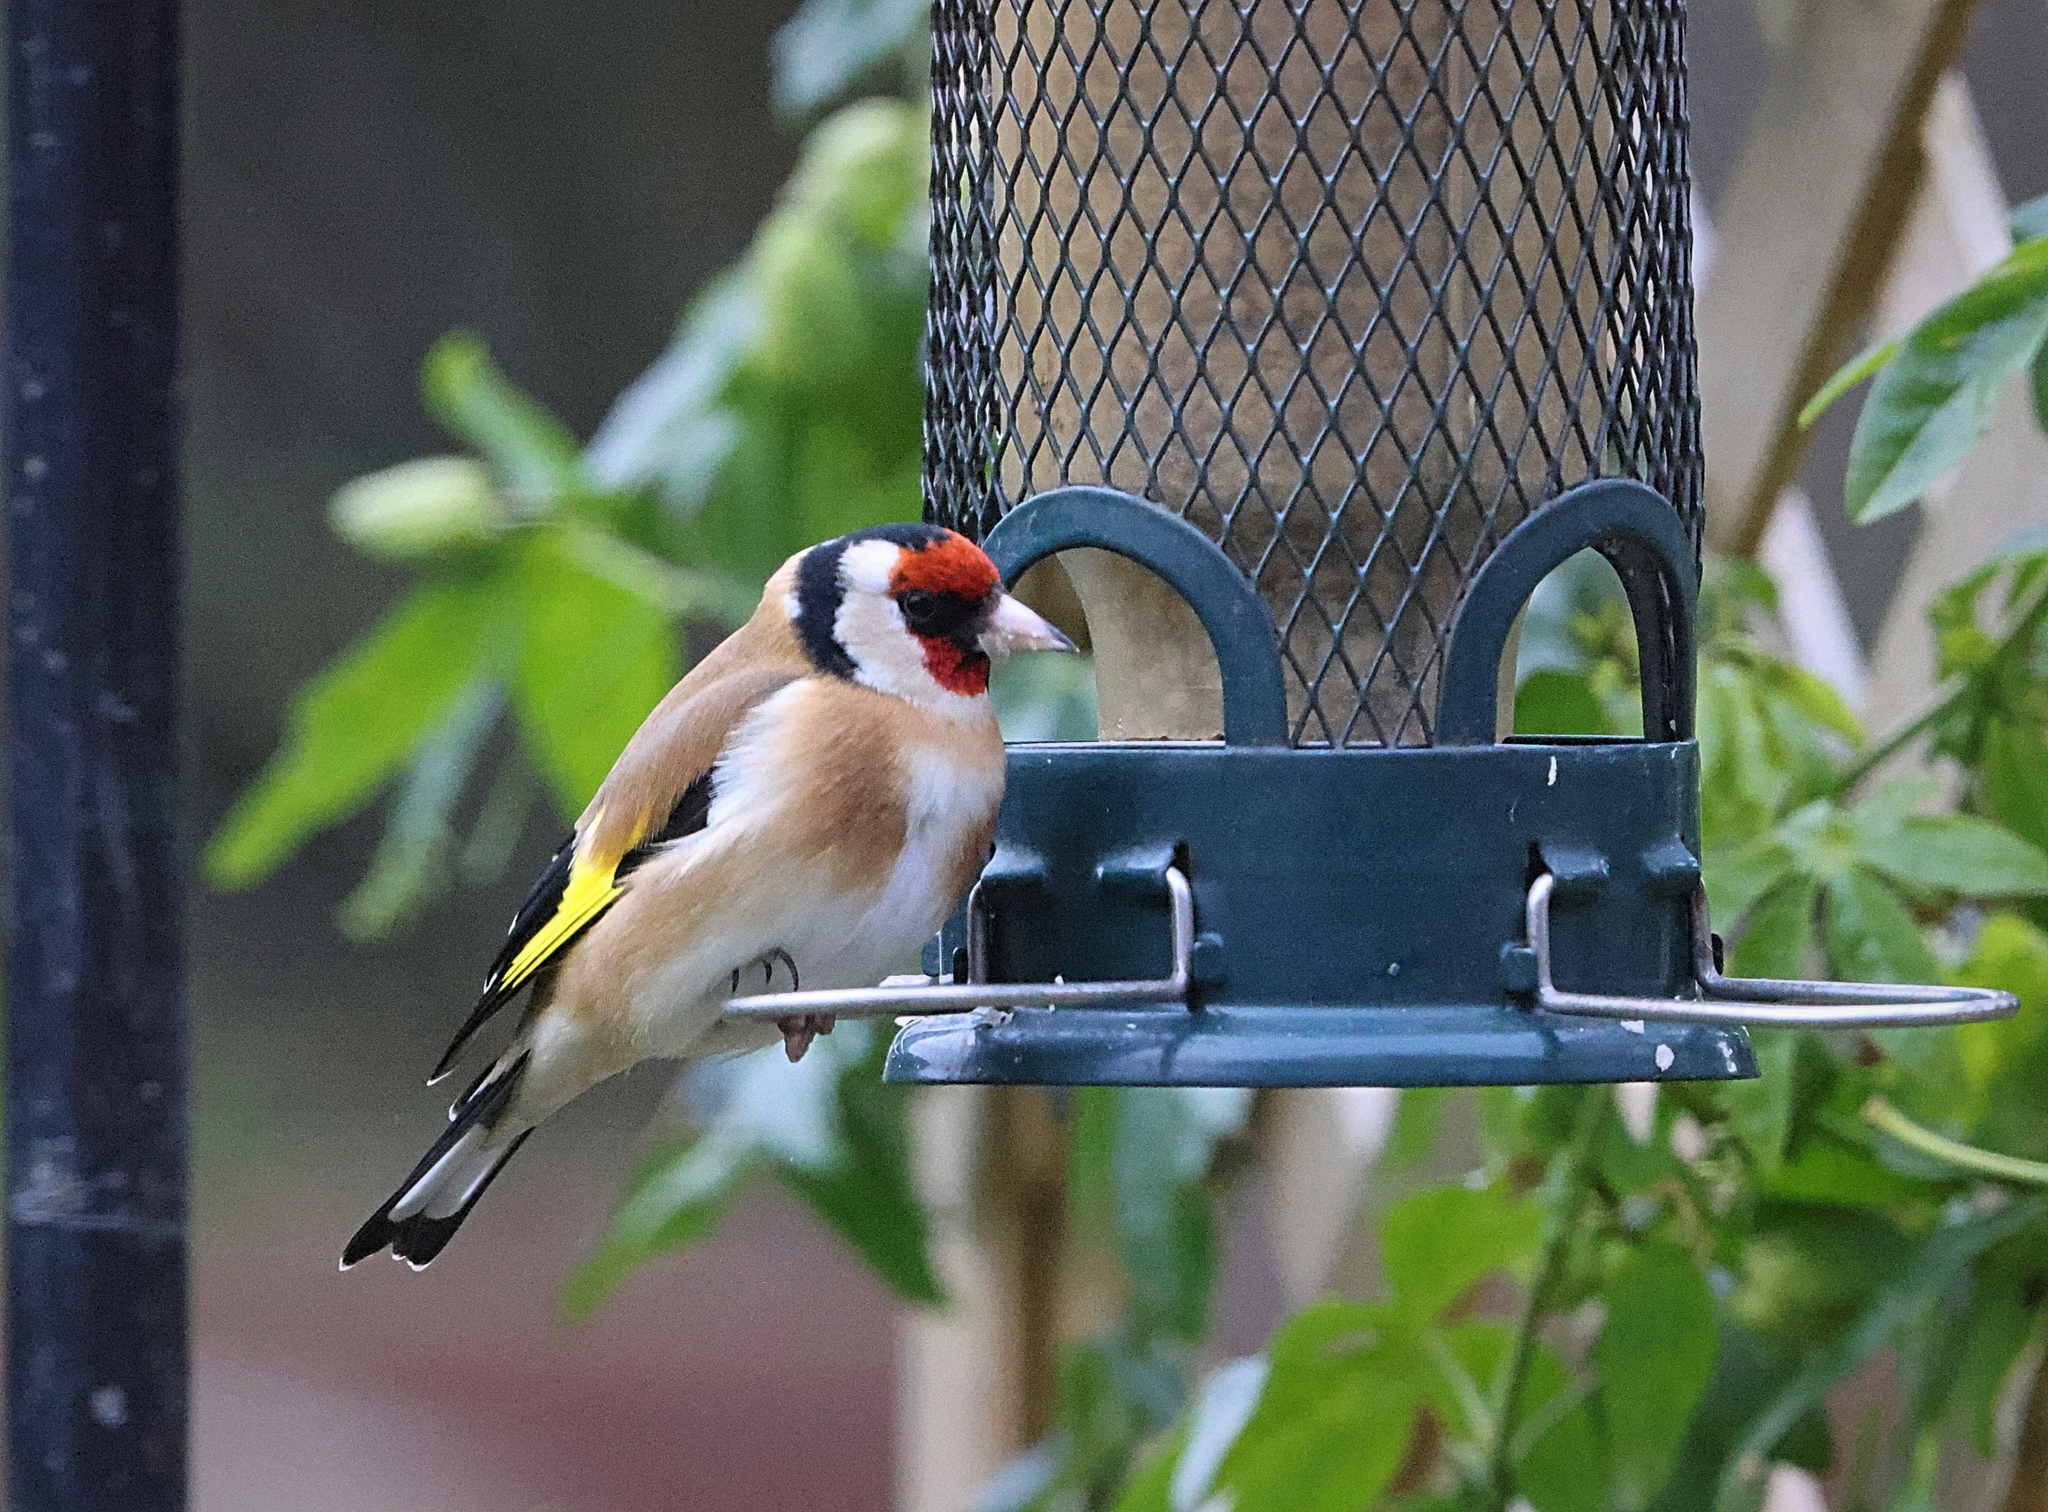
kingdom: Animalia
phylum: Chordata
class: Aves
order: Passeriformes
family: Fringillidae
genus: Carduelis
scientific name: Carduelis carduelis
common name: European goldfinch
